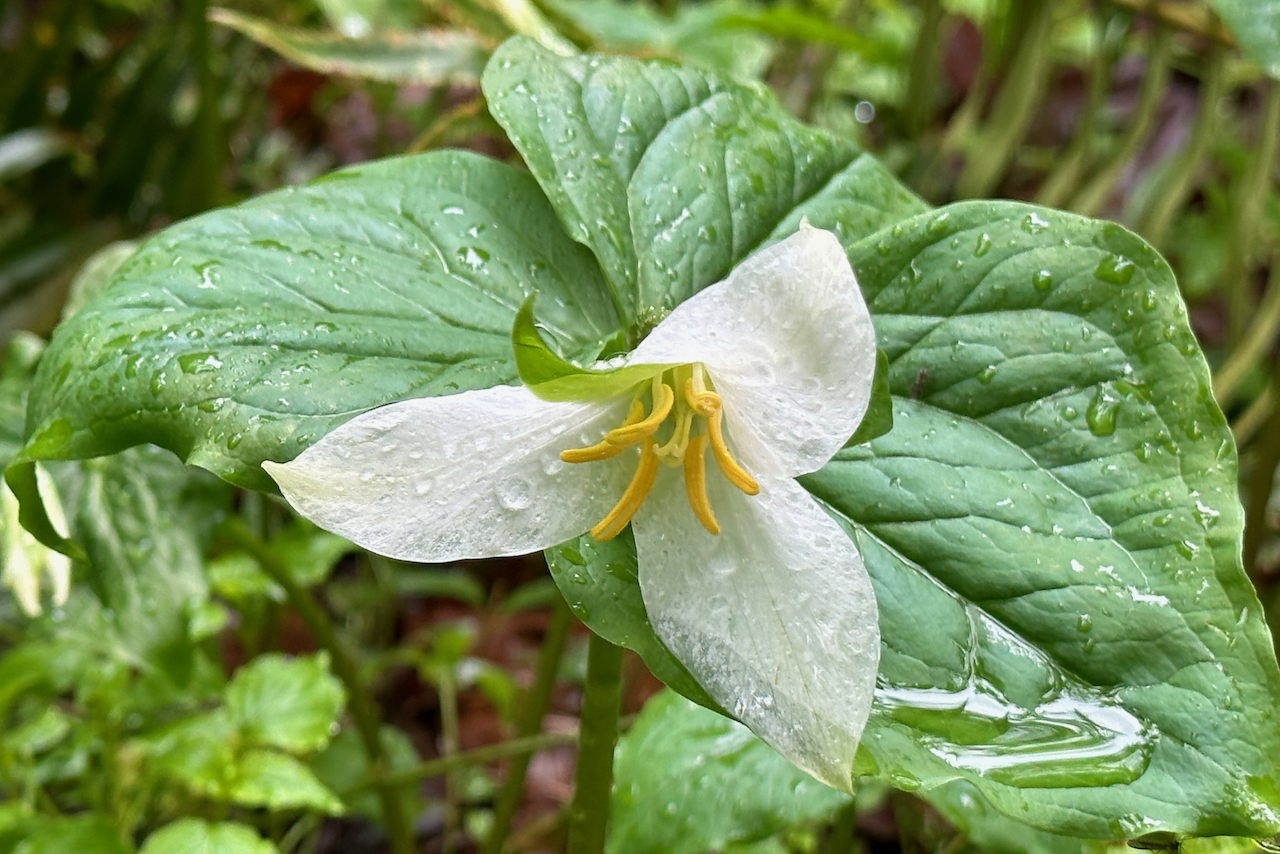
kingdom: Plantae
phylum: Tracheophyta
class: Liliopsida
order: Liliales
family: Melanthiaceae
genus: Trillium
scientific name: Trillium ovatum
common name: Pacific trillium
